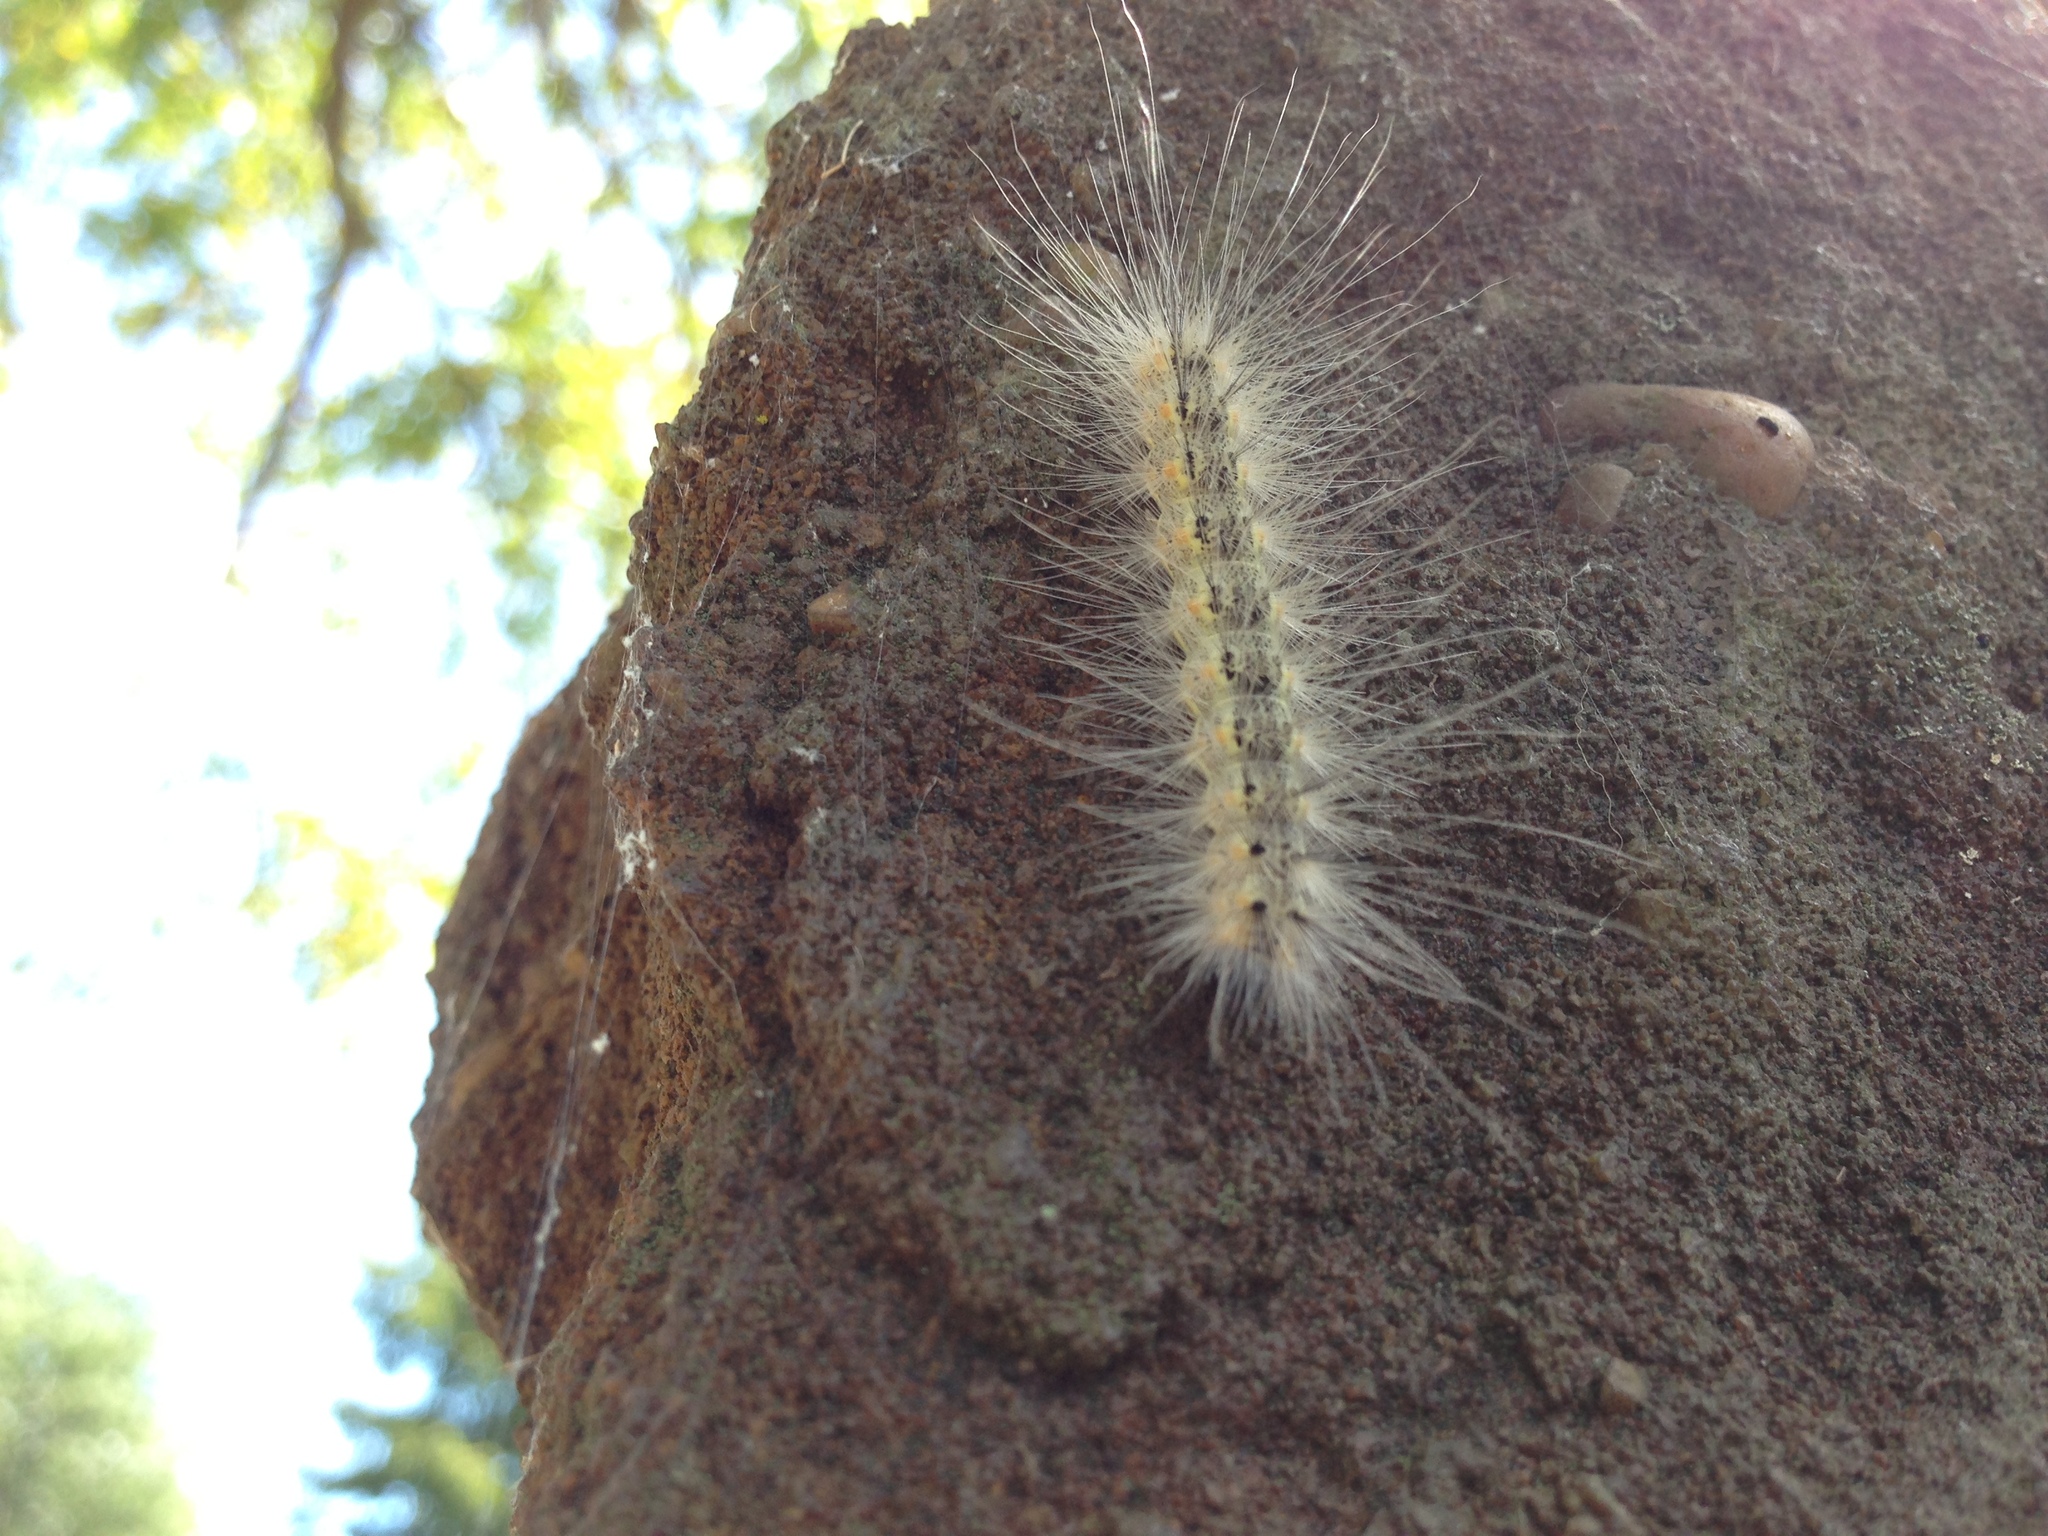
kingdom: Animalia
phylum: Arthropoda
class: Insecta
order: Lepidoptera
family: Erebidae
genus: Hyphantria
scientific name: Hyphantria cunea
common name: American white moth
